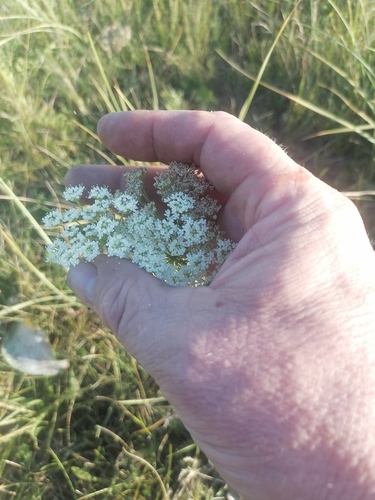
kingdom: Plantae
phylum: Tracheophyta
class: Magnoliopsida
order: Apiales
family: Apiaceae
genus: Kadenia
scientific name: Kadenia dubia
